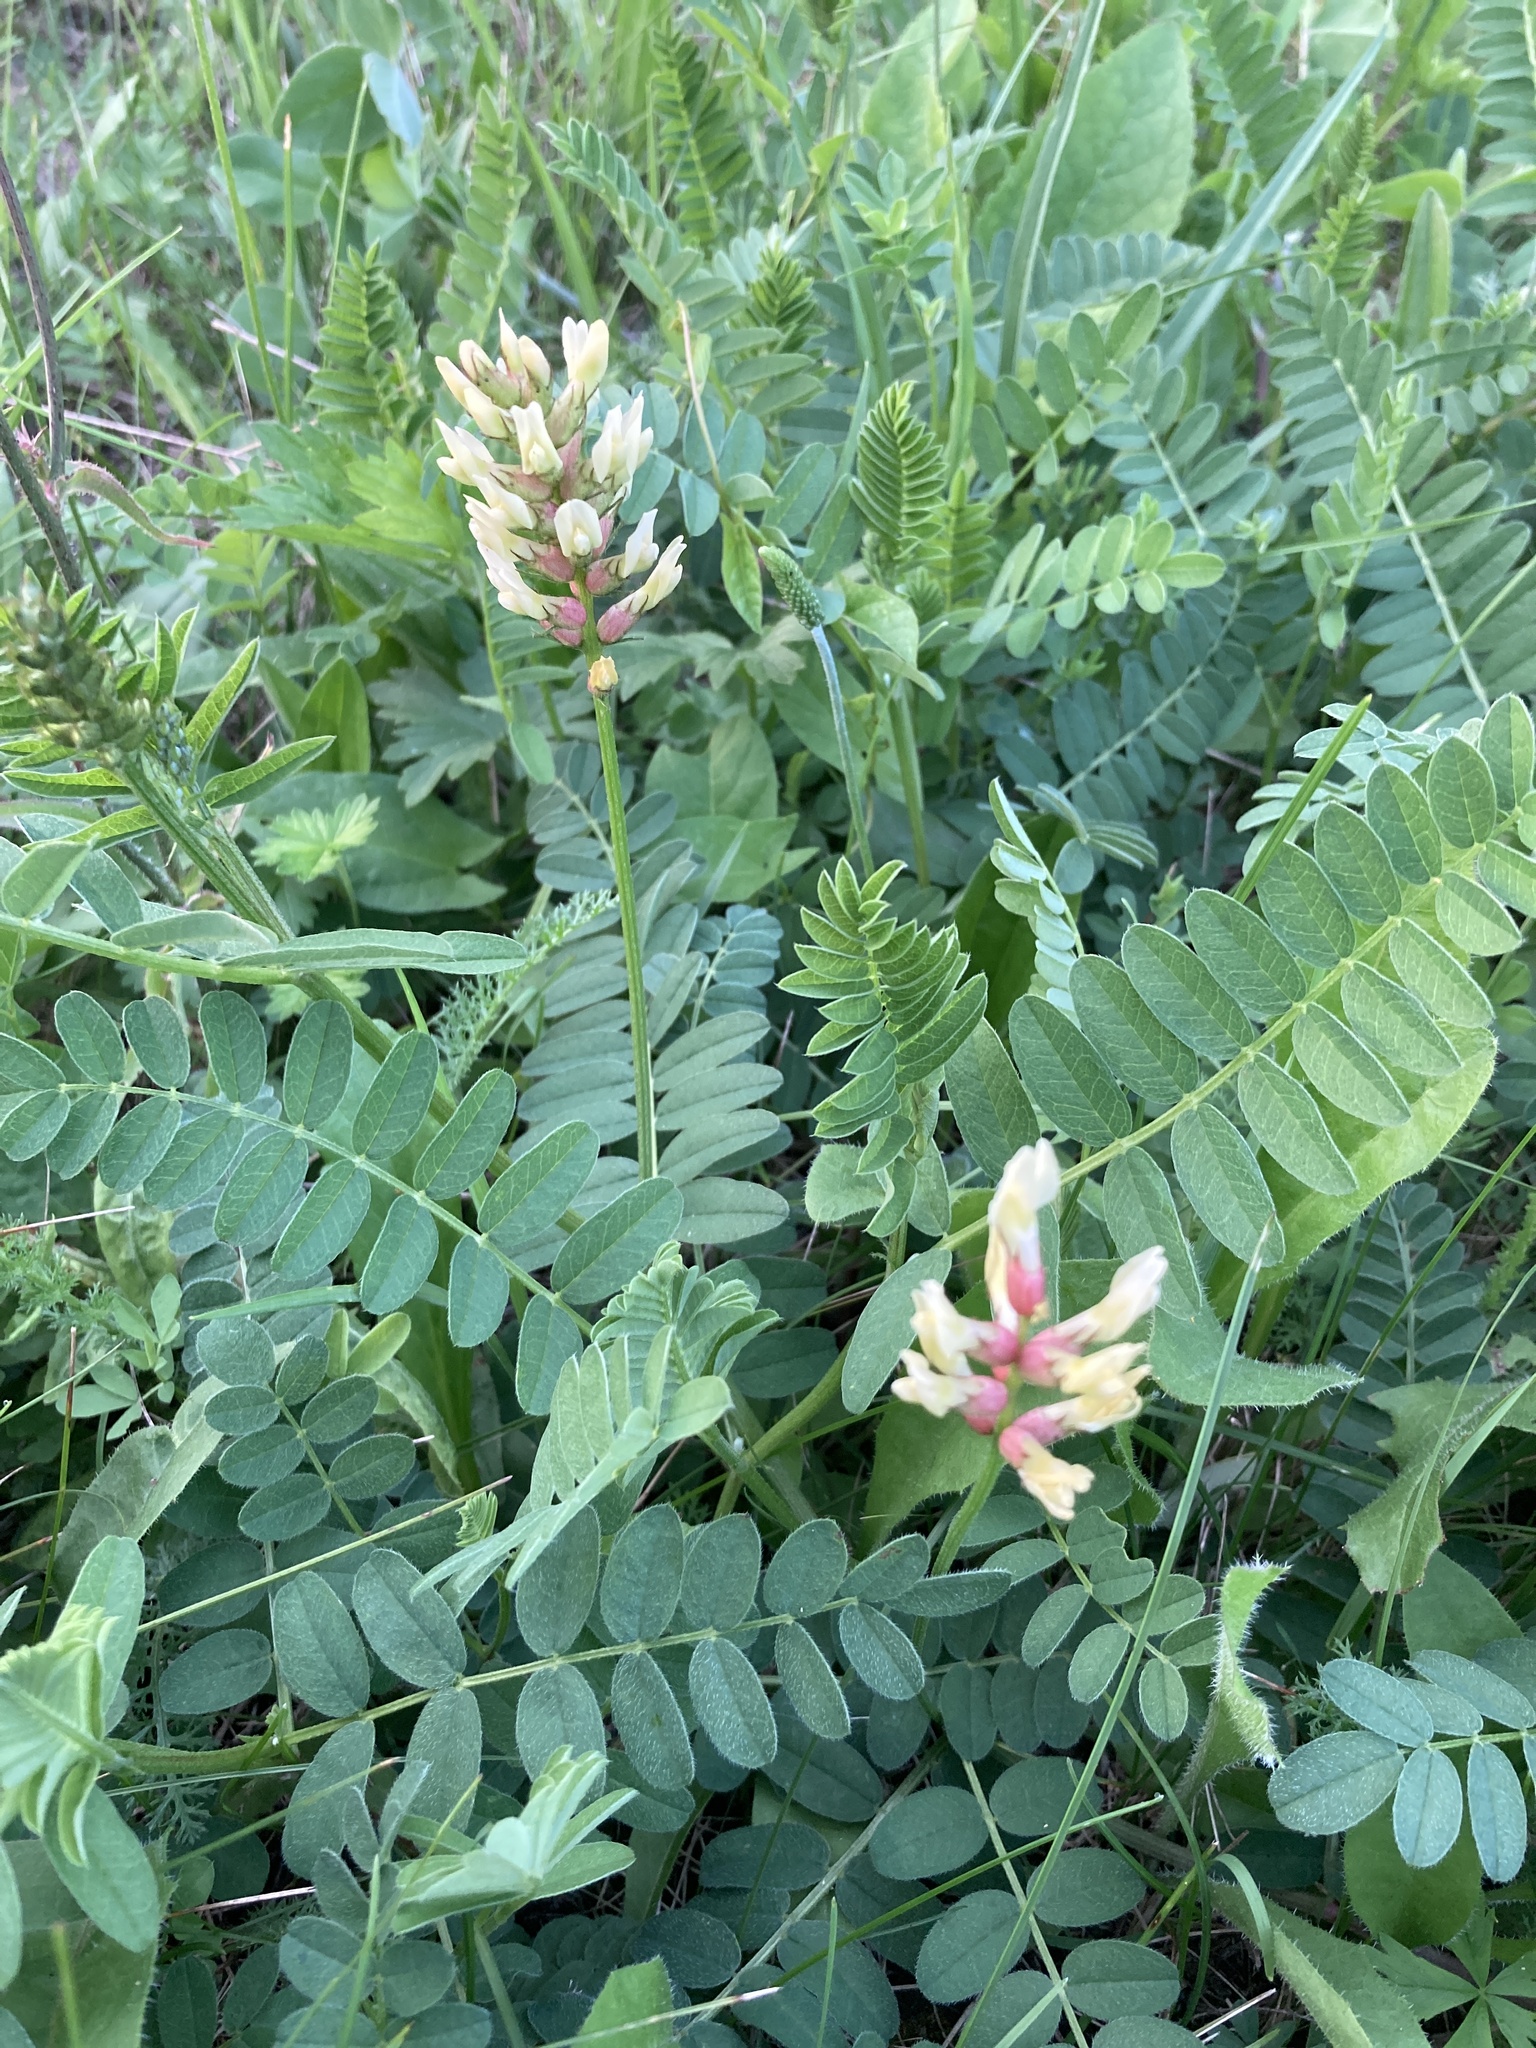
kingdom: Plantae
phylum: Tracheophyta
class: Magnoliopsida
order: Fabales
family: Fabaceae
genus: Astragalus
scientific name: Astragalus cicer
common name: Chick-pea milk-vetch
